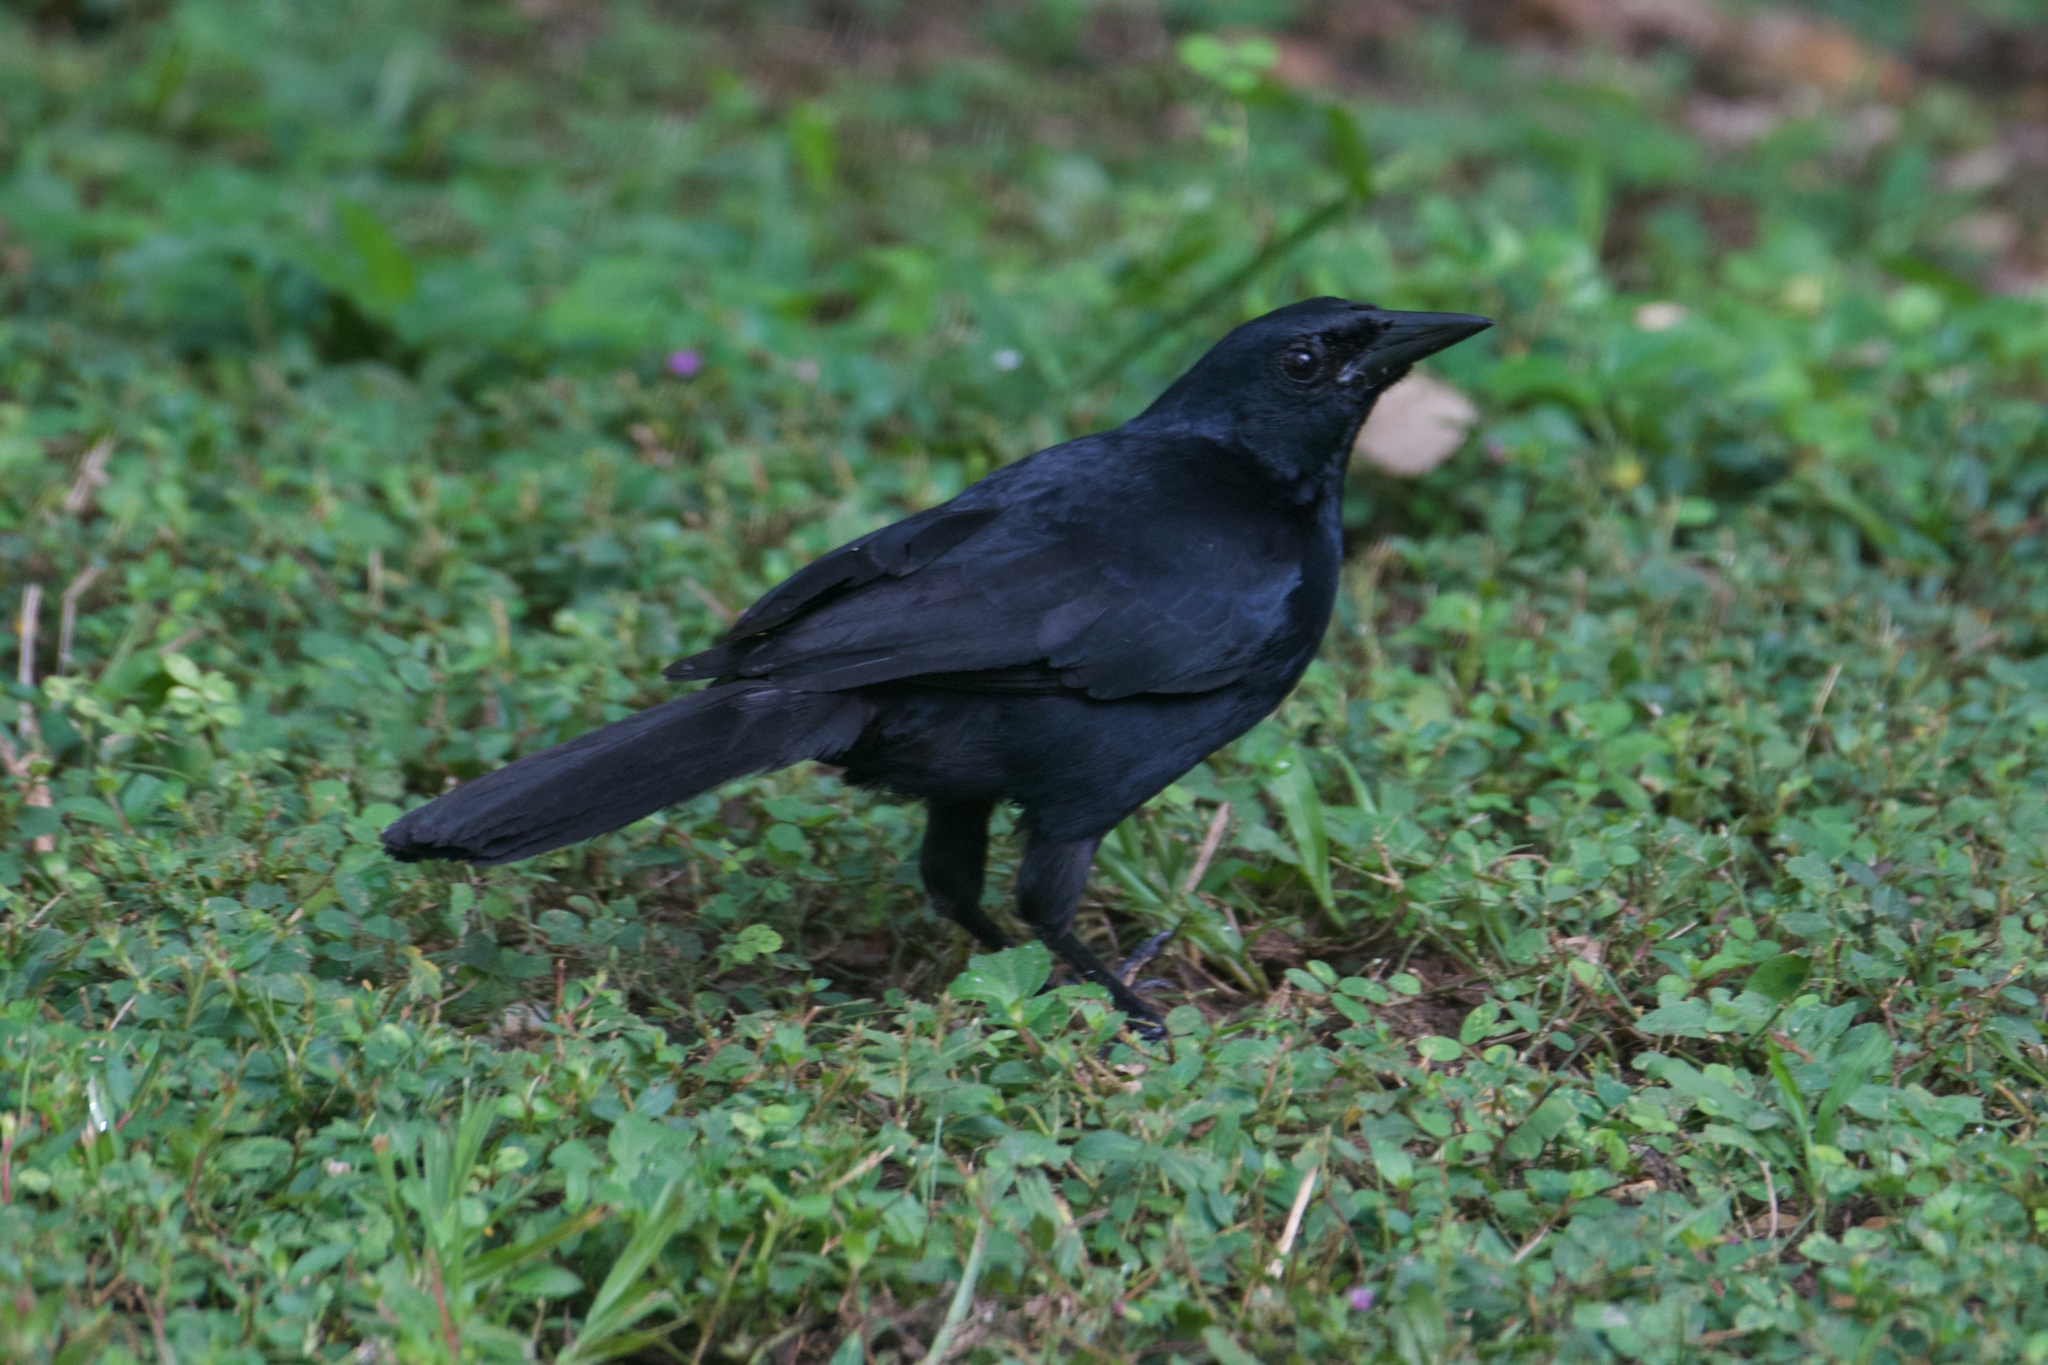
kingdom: Animalia
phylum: Chordata
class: Aves
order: Passeriformes
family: Icteridae
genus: Dives
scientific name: Dives dives
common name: Melodious blackbird
